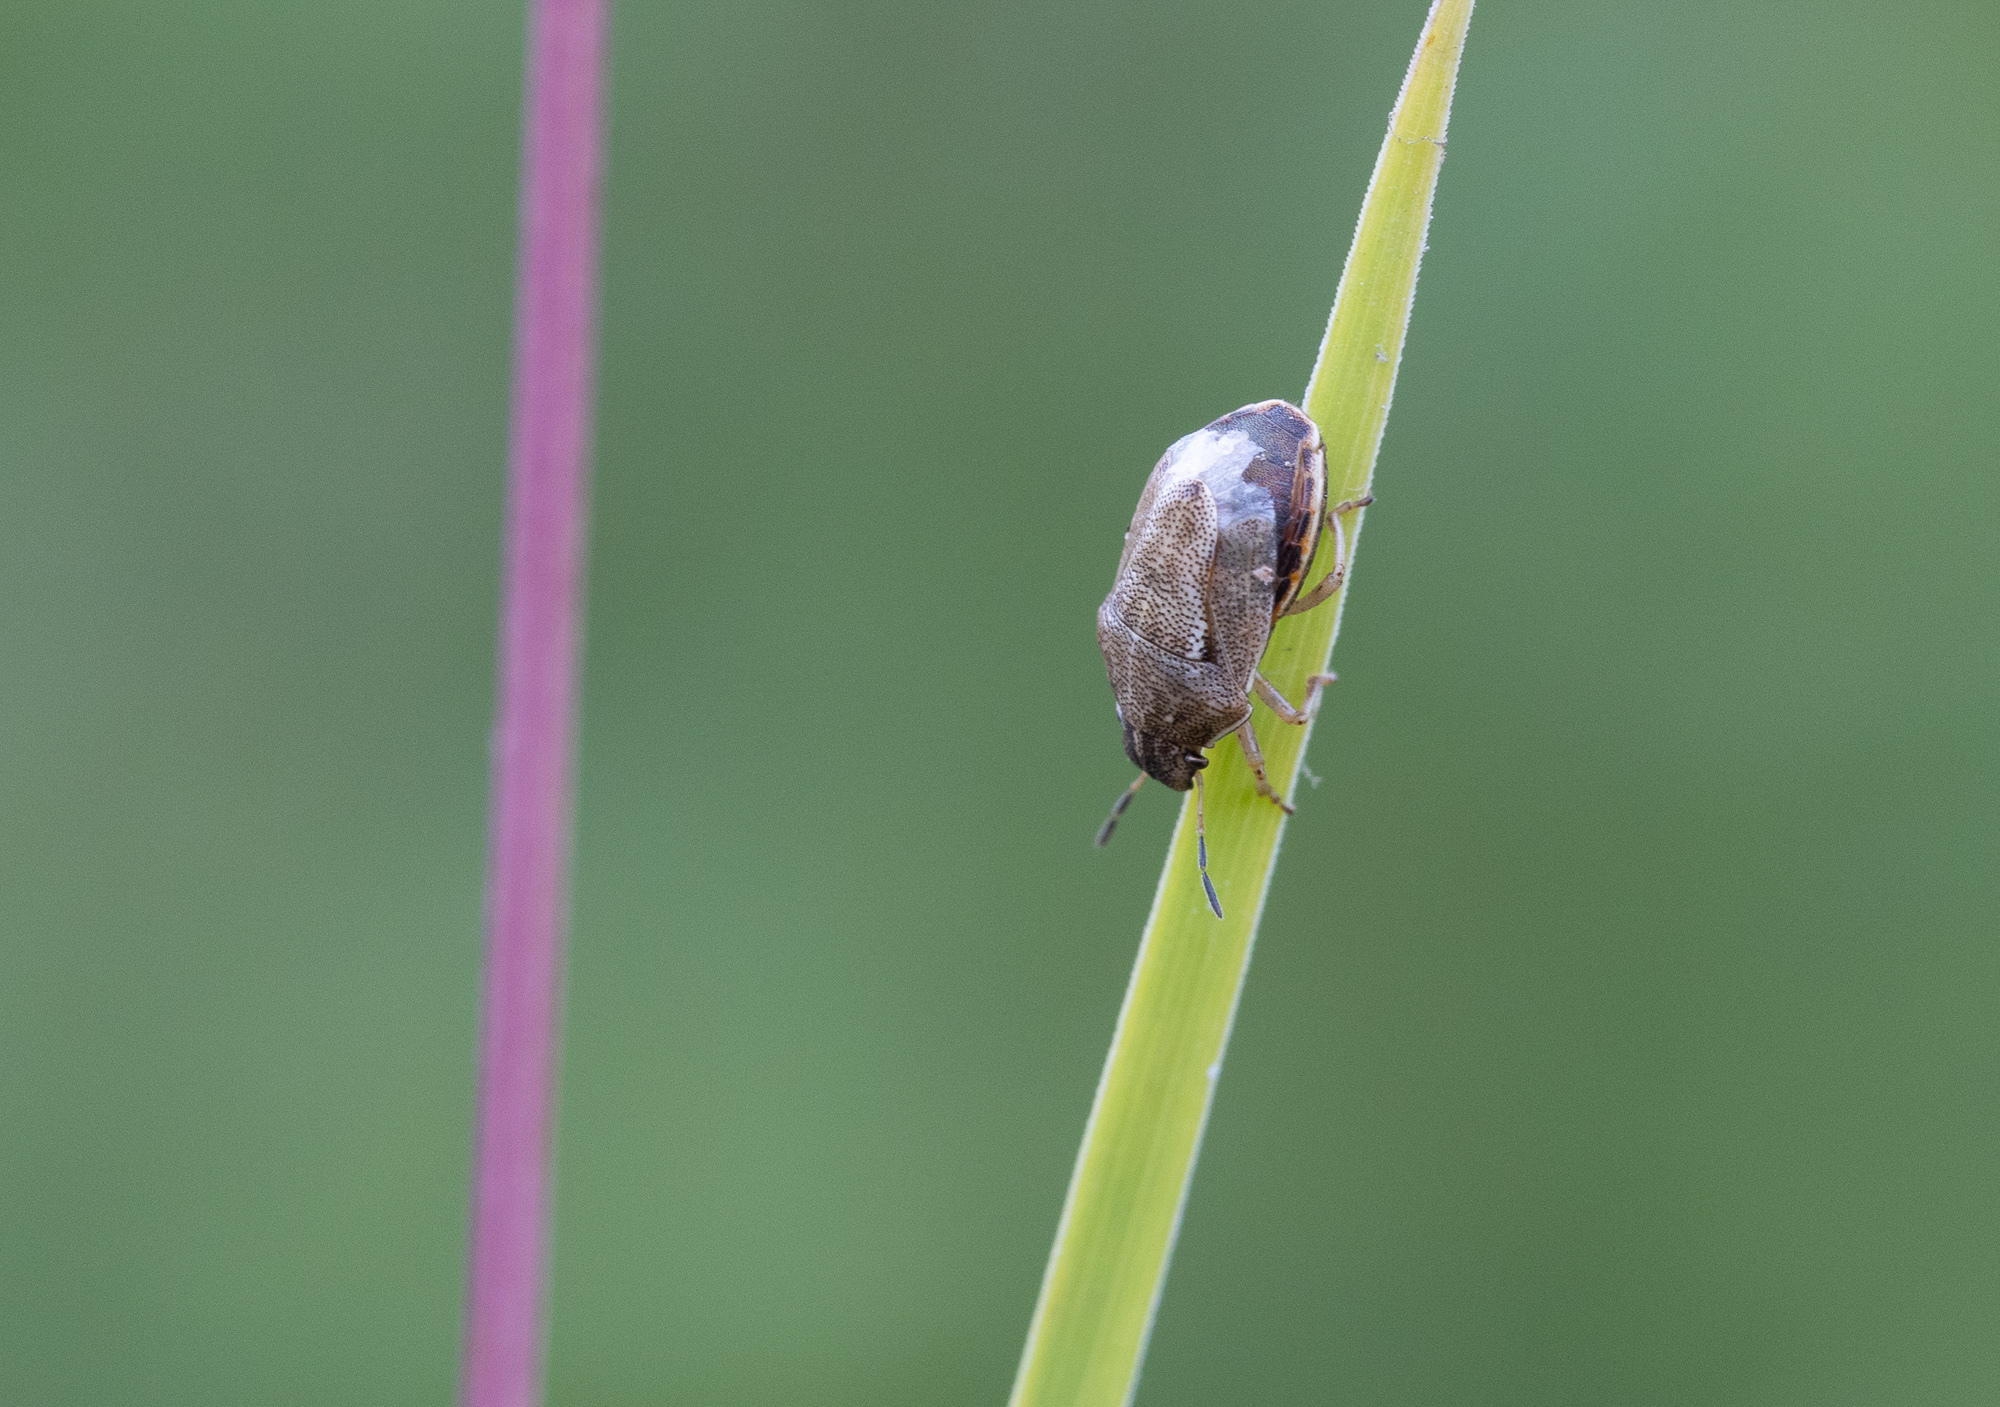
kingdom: Animalia
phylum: Arthropoda
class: Insecta
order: Hemiptera
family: Pentatomidae
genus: Neottiglossa
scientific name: Neottiglossa pusilla
